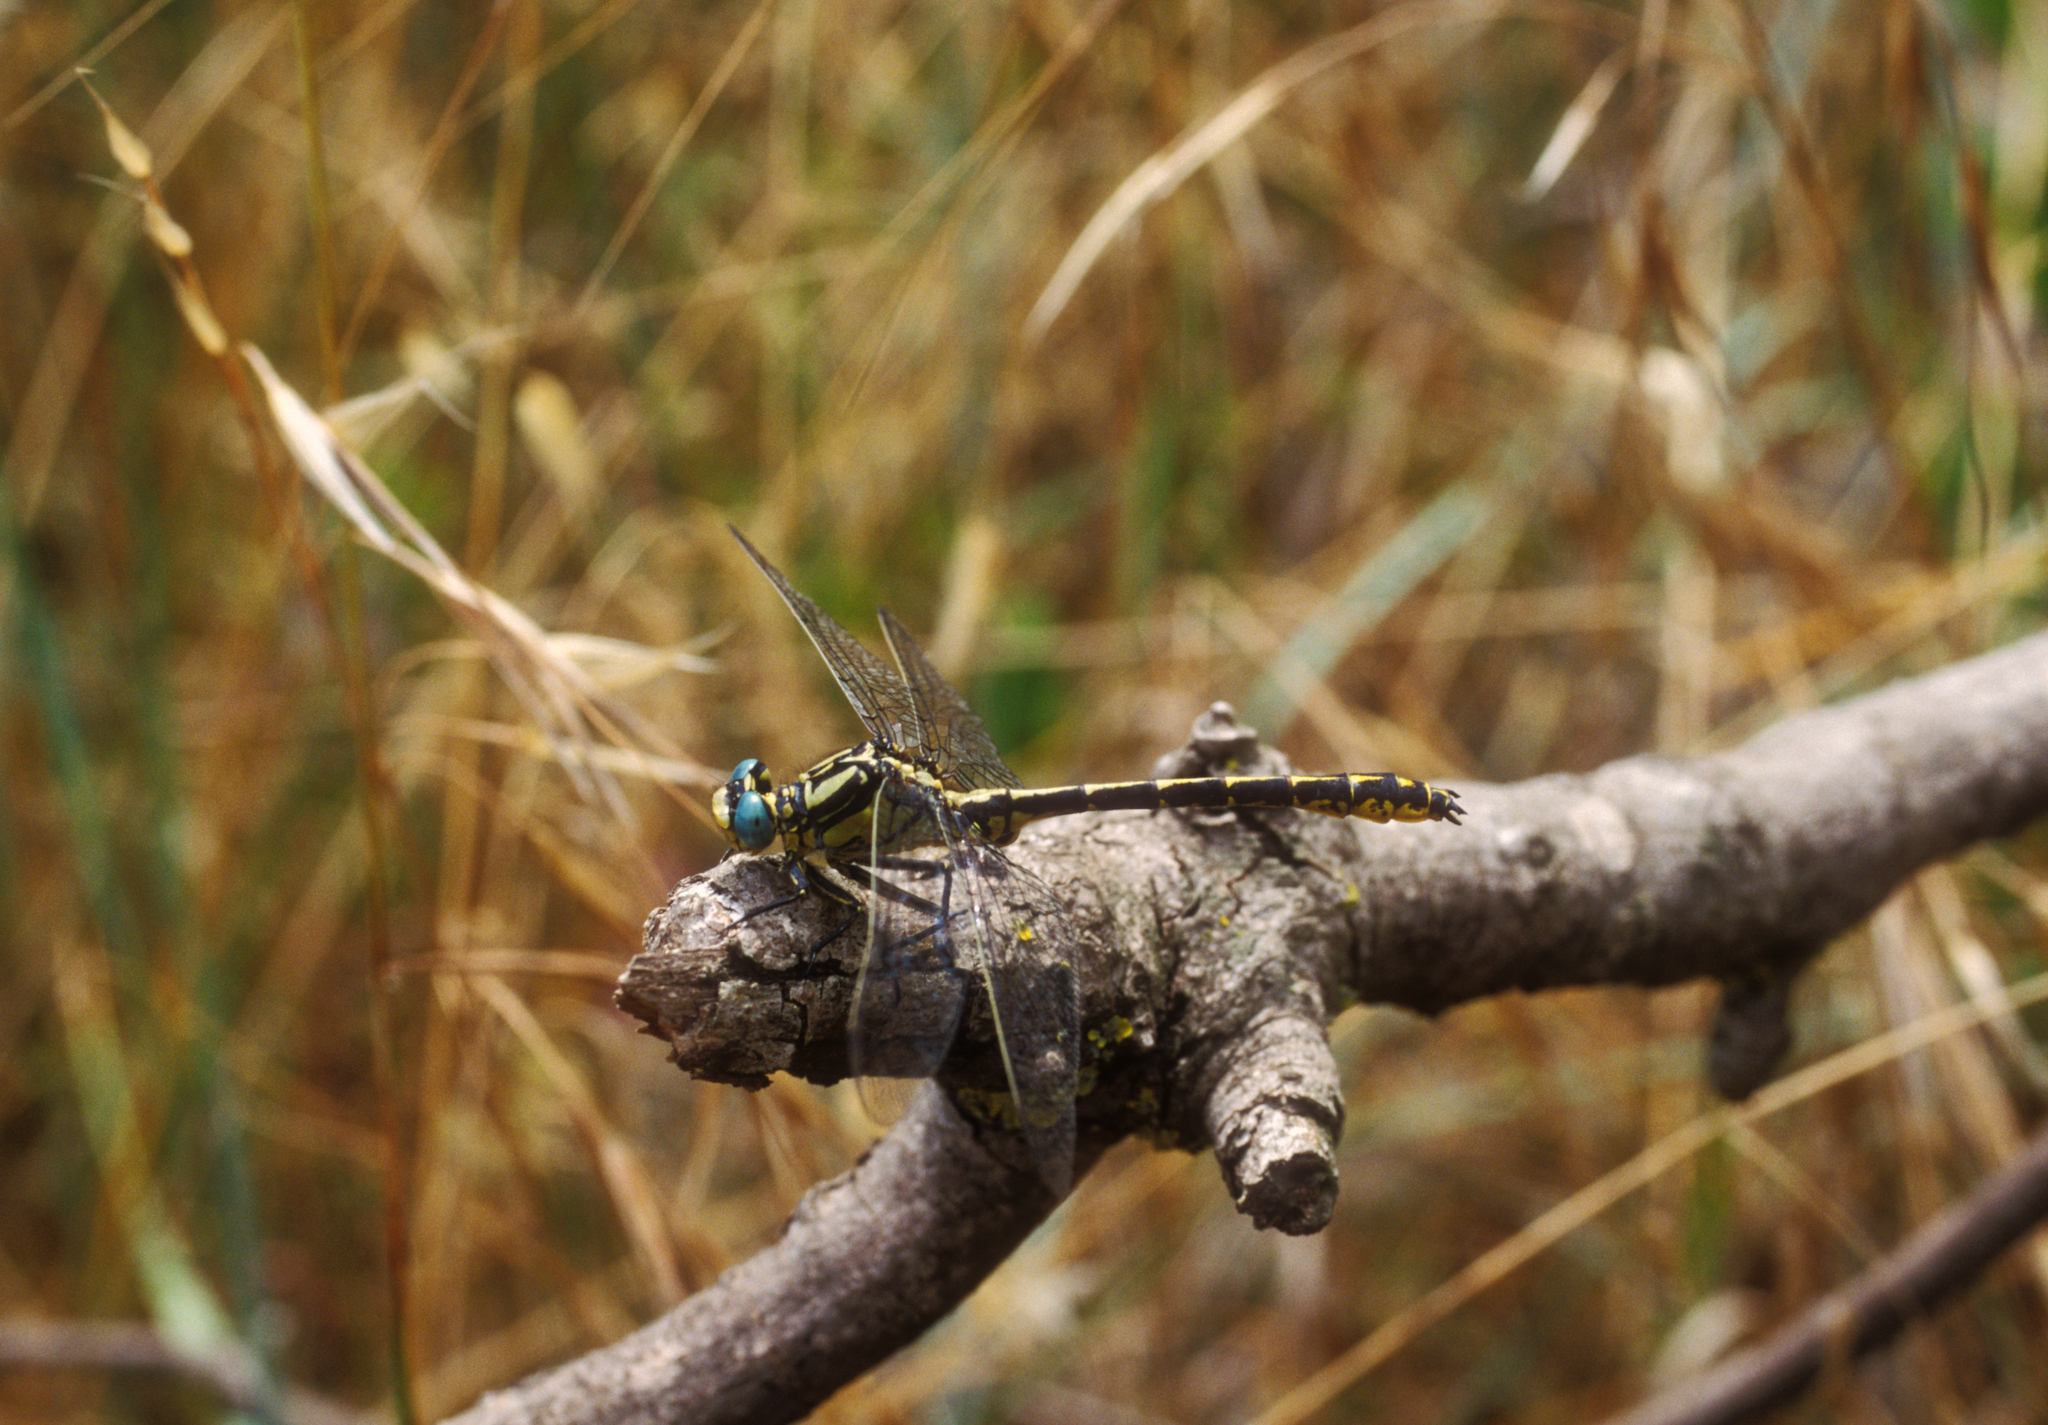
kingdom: Animalia
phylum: Arthropoda
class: Insecta
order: Odonata
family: Gomphidae
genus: Gomphus
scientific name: Gomphus graslinii
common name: Pronged clubtail
